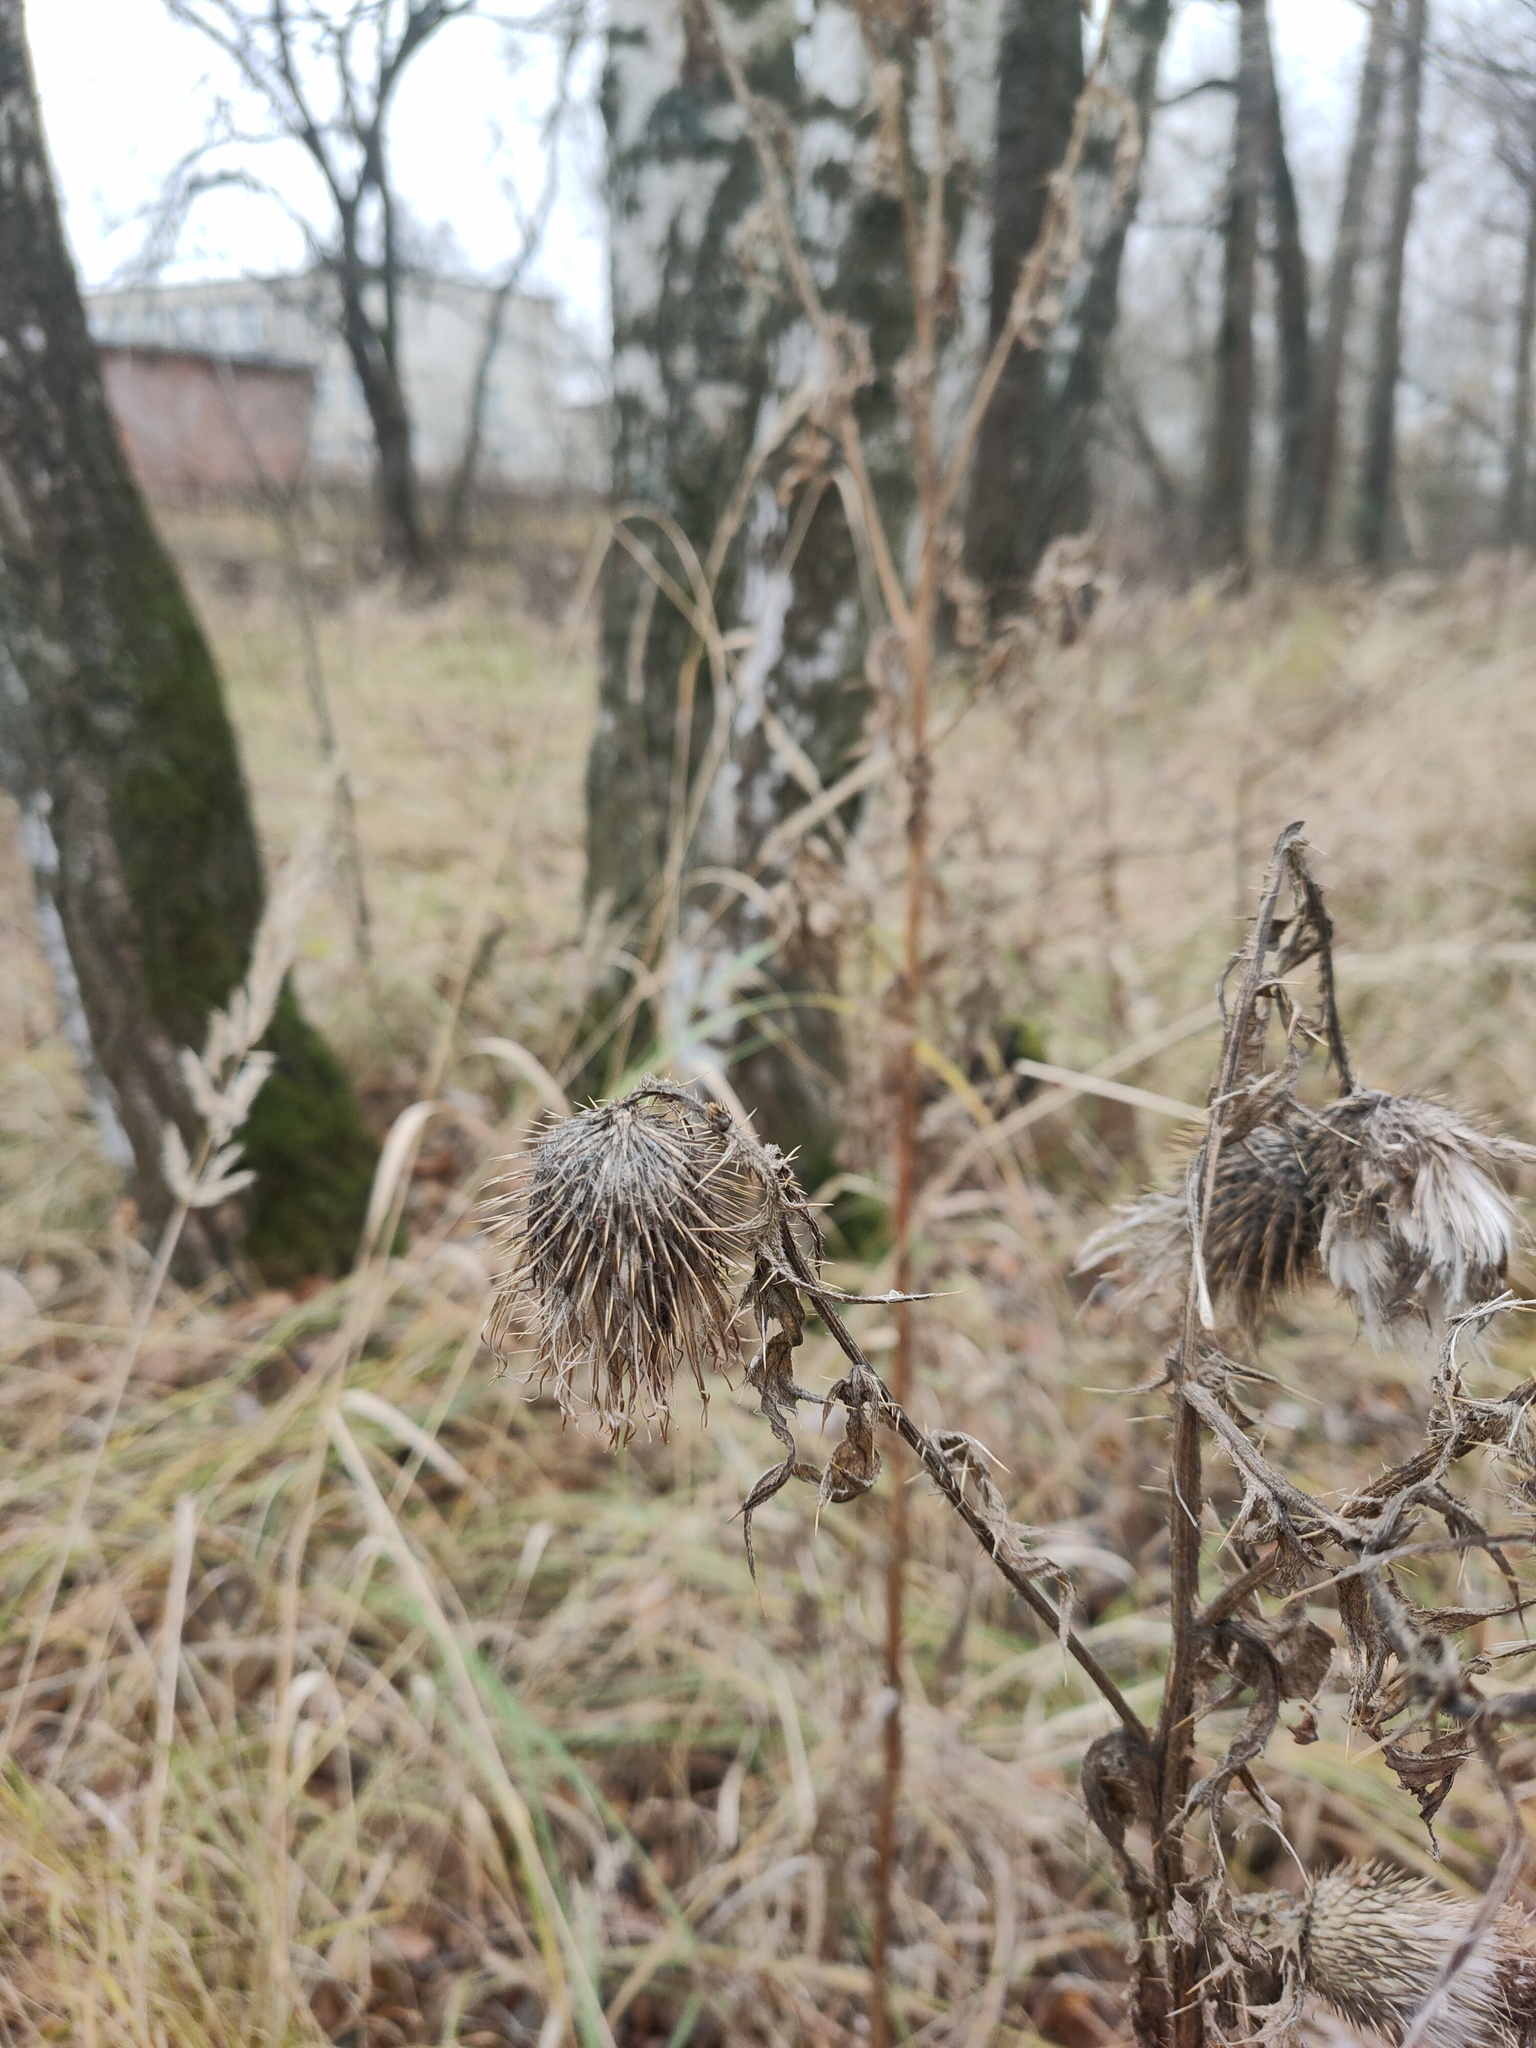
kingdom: Plantae
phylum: Tracheophyta
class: Magnoliopsida
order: Asterales
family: Asteraceae
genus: Cirsium
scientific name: Cirsium vulgare
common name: Bull thistle
